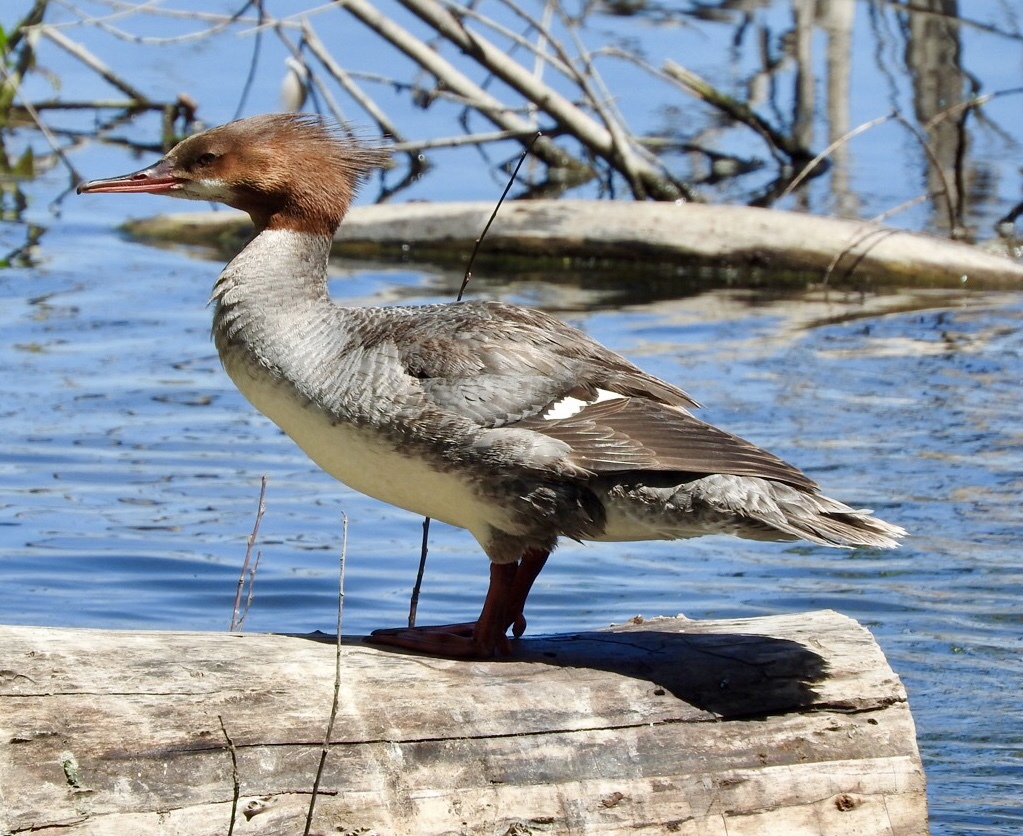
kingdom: Animalia
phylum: Chordata
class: Aves
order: Anseriformes
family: Anatidae
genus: Mergus
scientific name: Mergus merganser
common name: Common merganser
